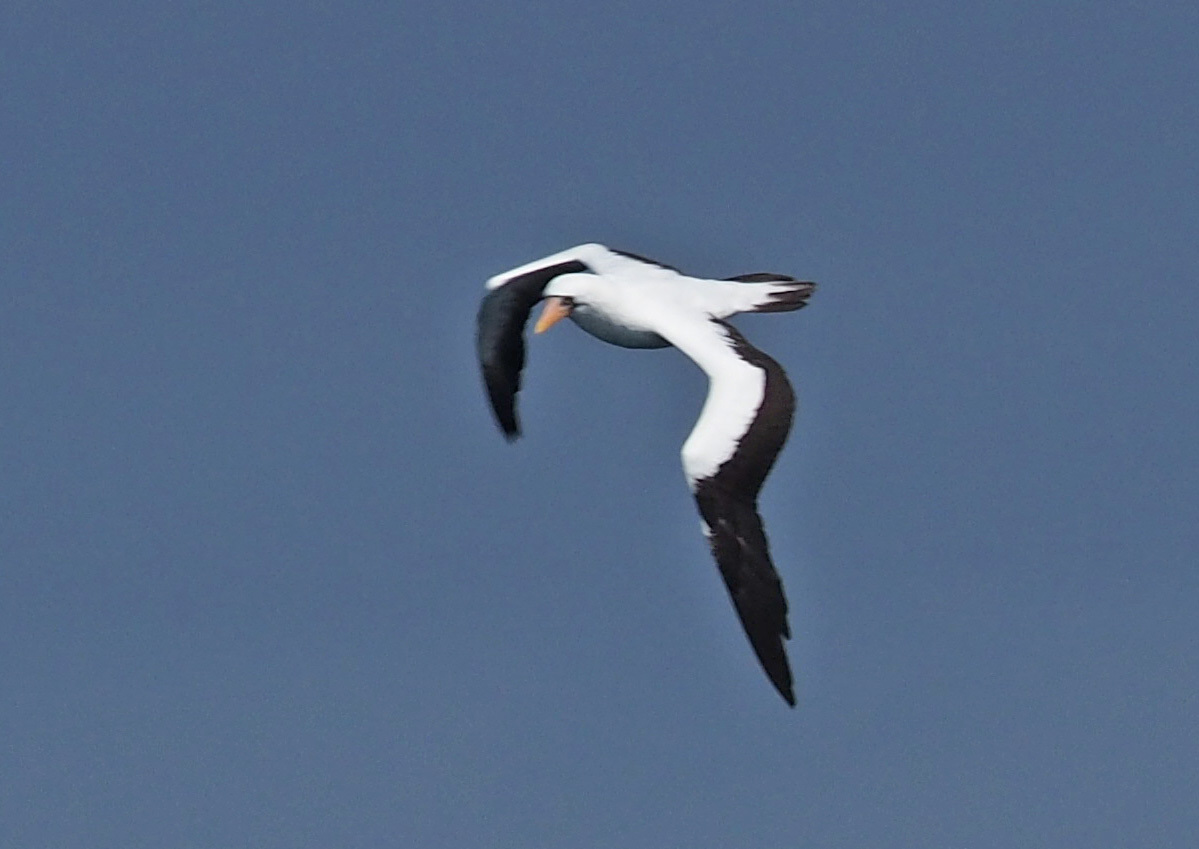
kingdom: Animalia
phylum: Chordata
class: Aves
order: Suliformes
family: Sulidae
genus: Sula
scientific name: Sula granti
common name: Nazca booby
